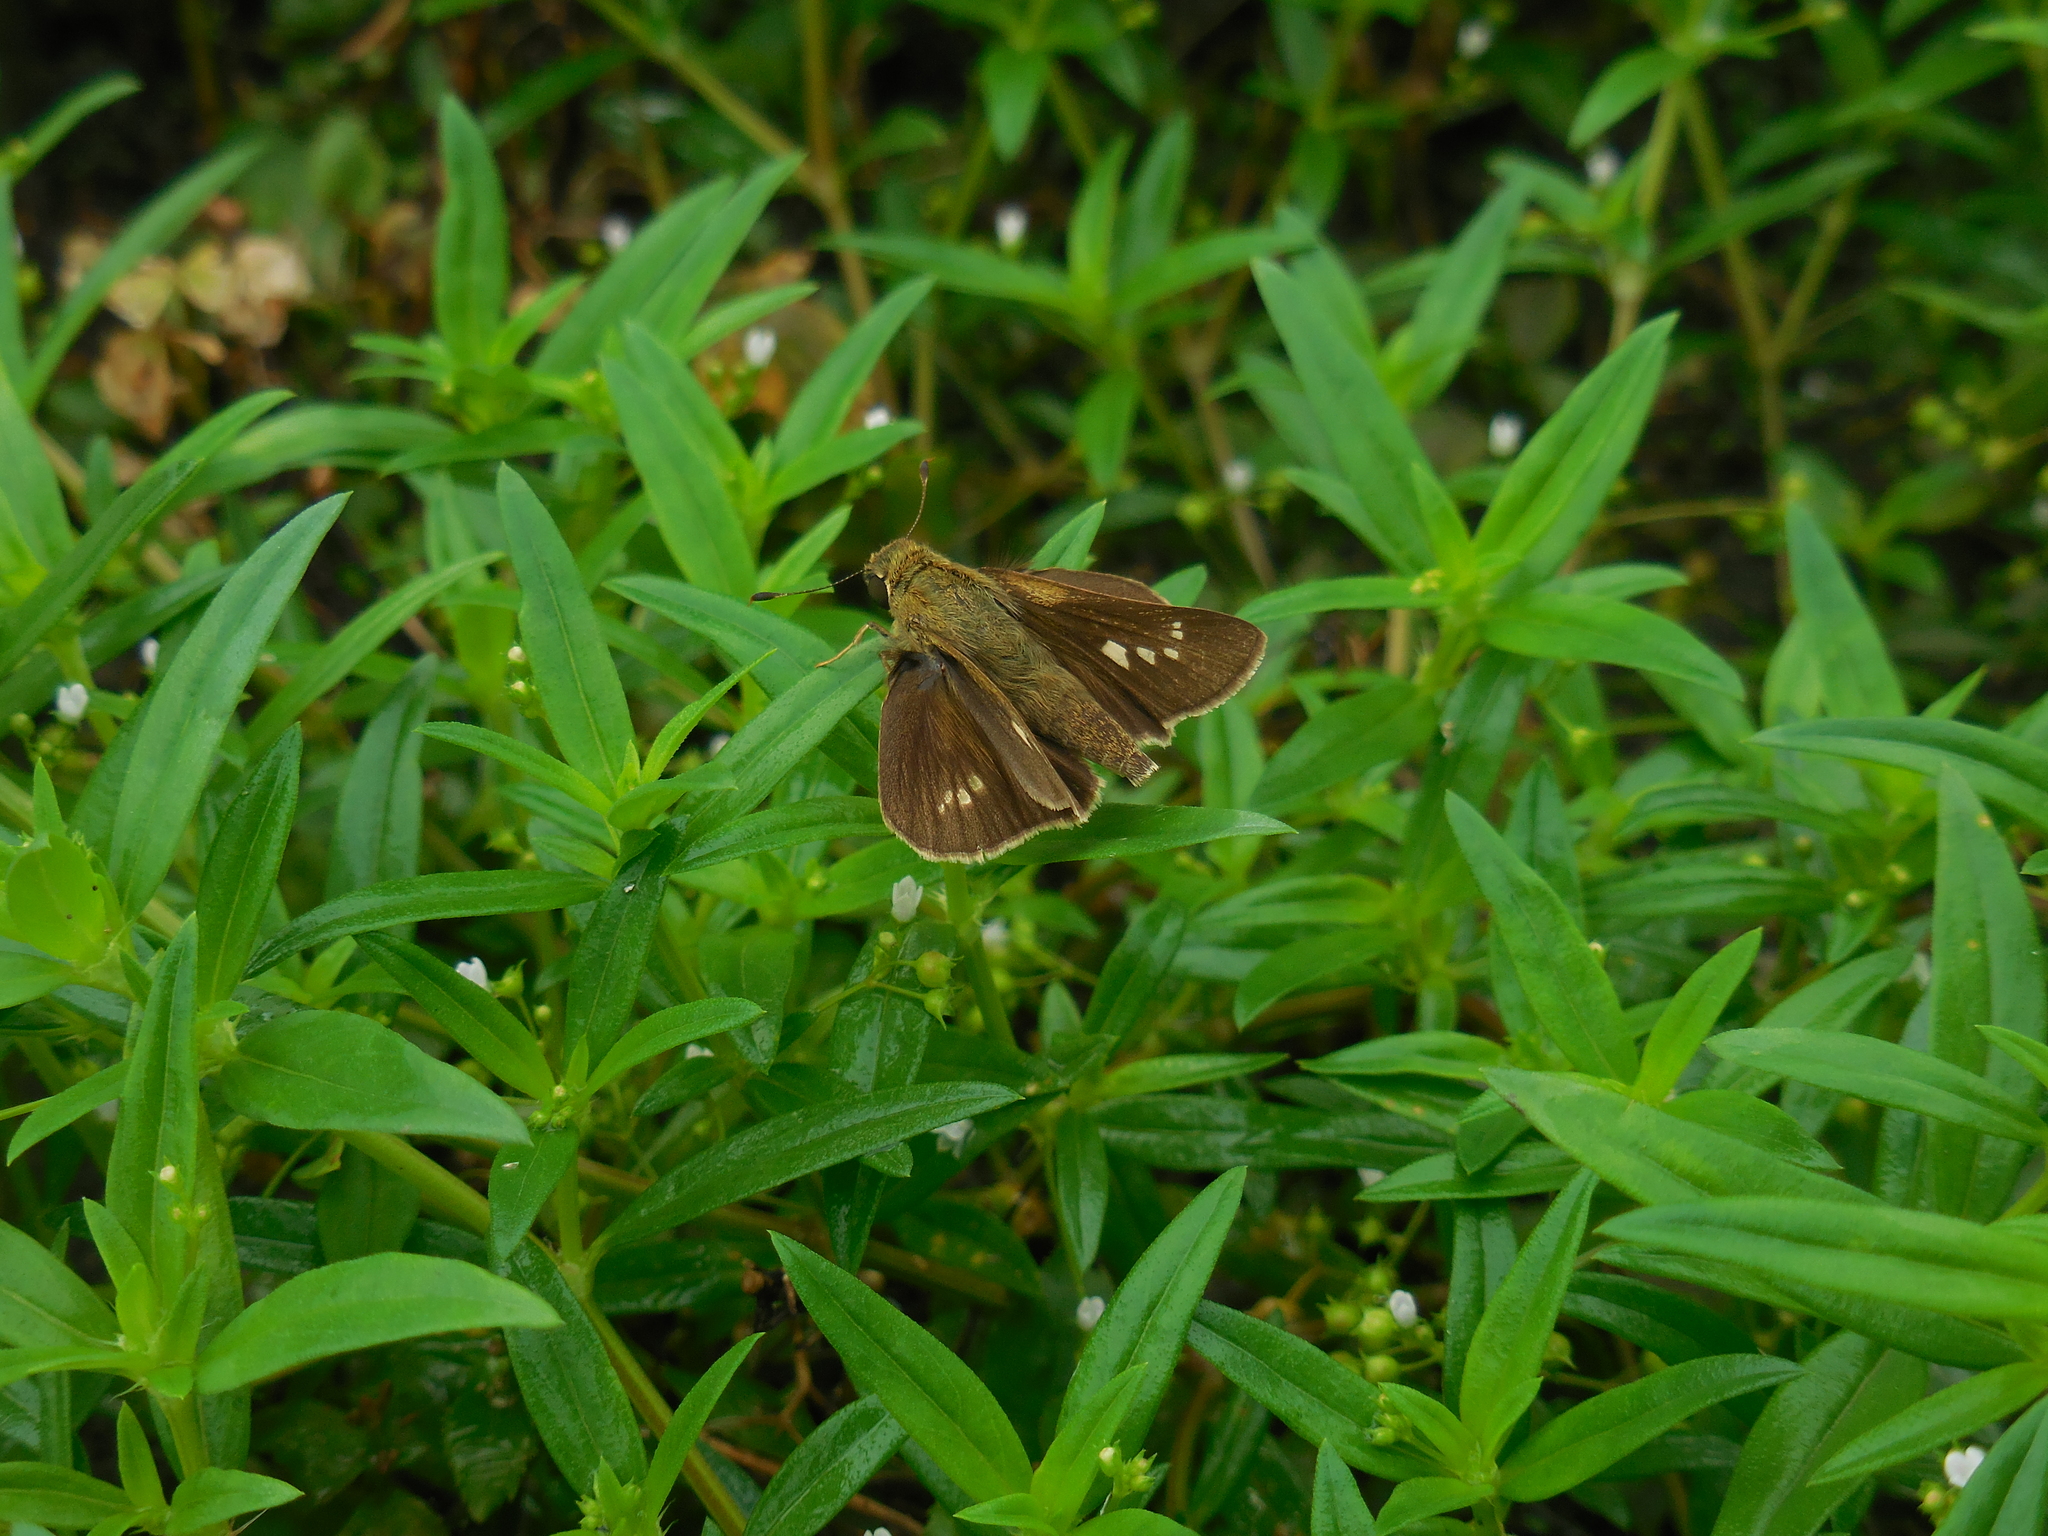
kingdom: Animalia
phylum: Arthropoda
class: Insecta
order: Lepidoptera
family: Hesperiidae
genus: Baoris
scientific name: Baoris farri
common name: Paintbrush swift
